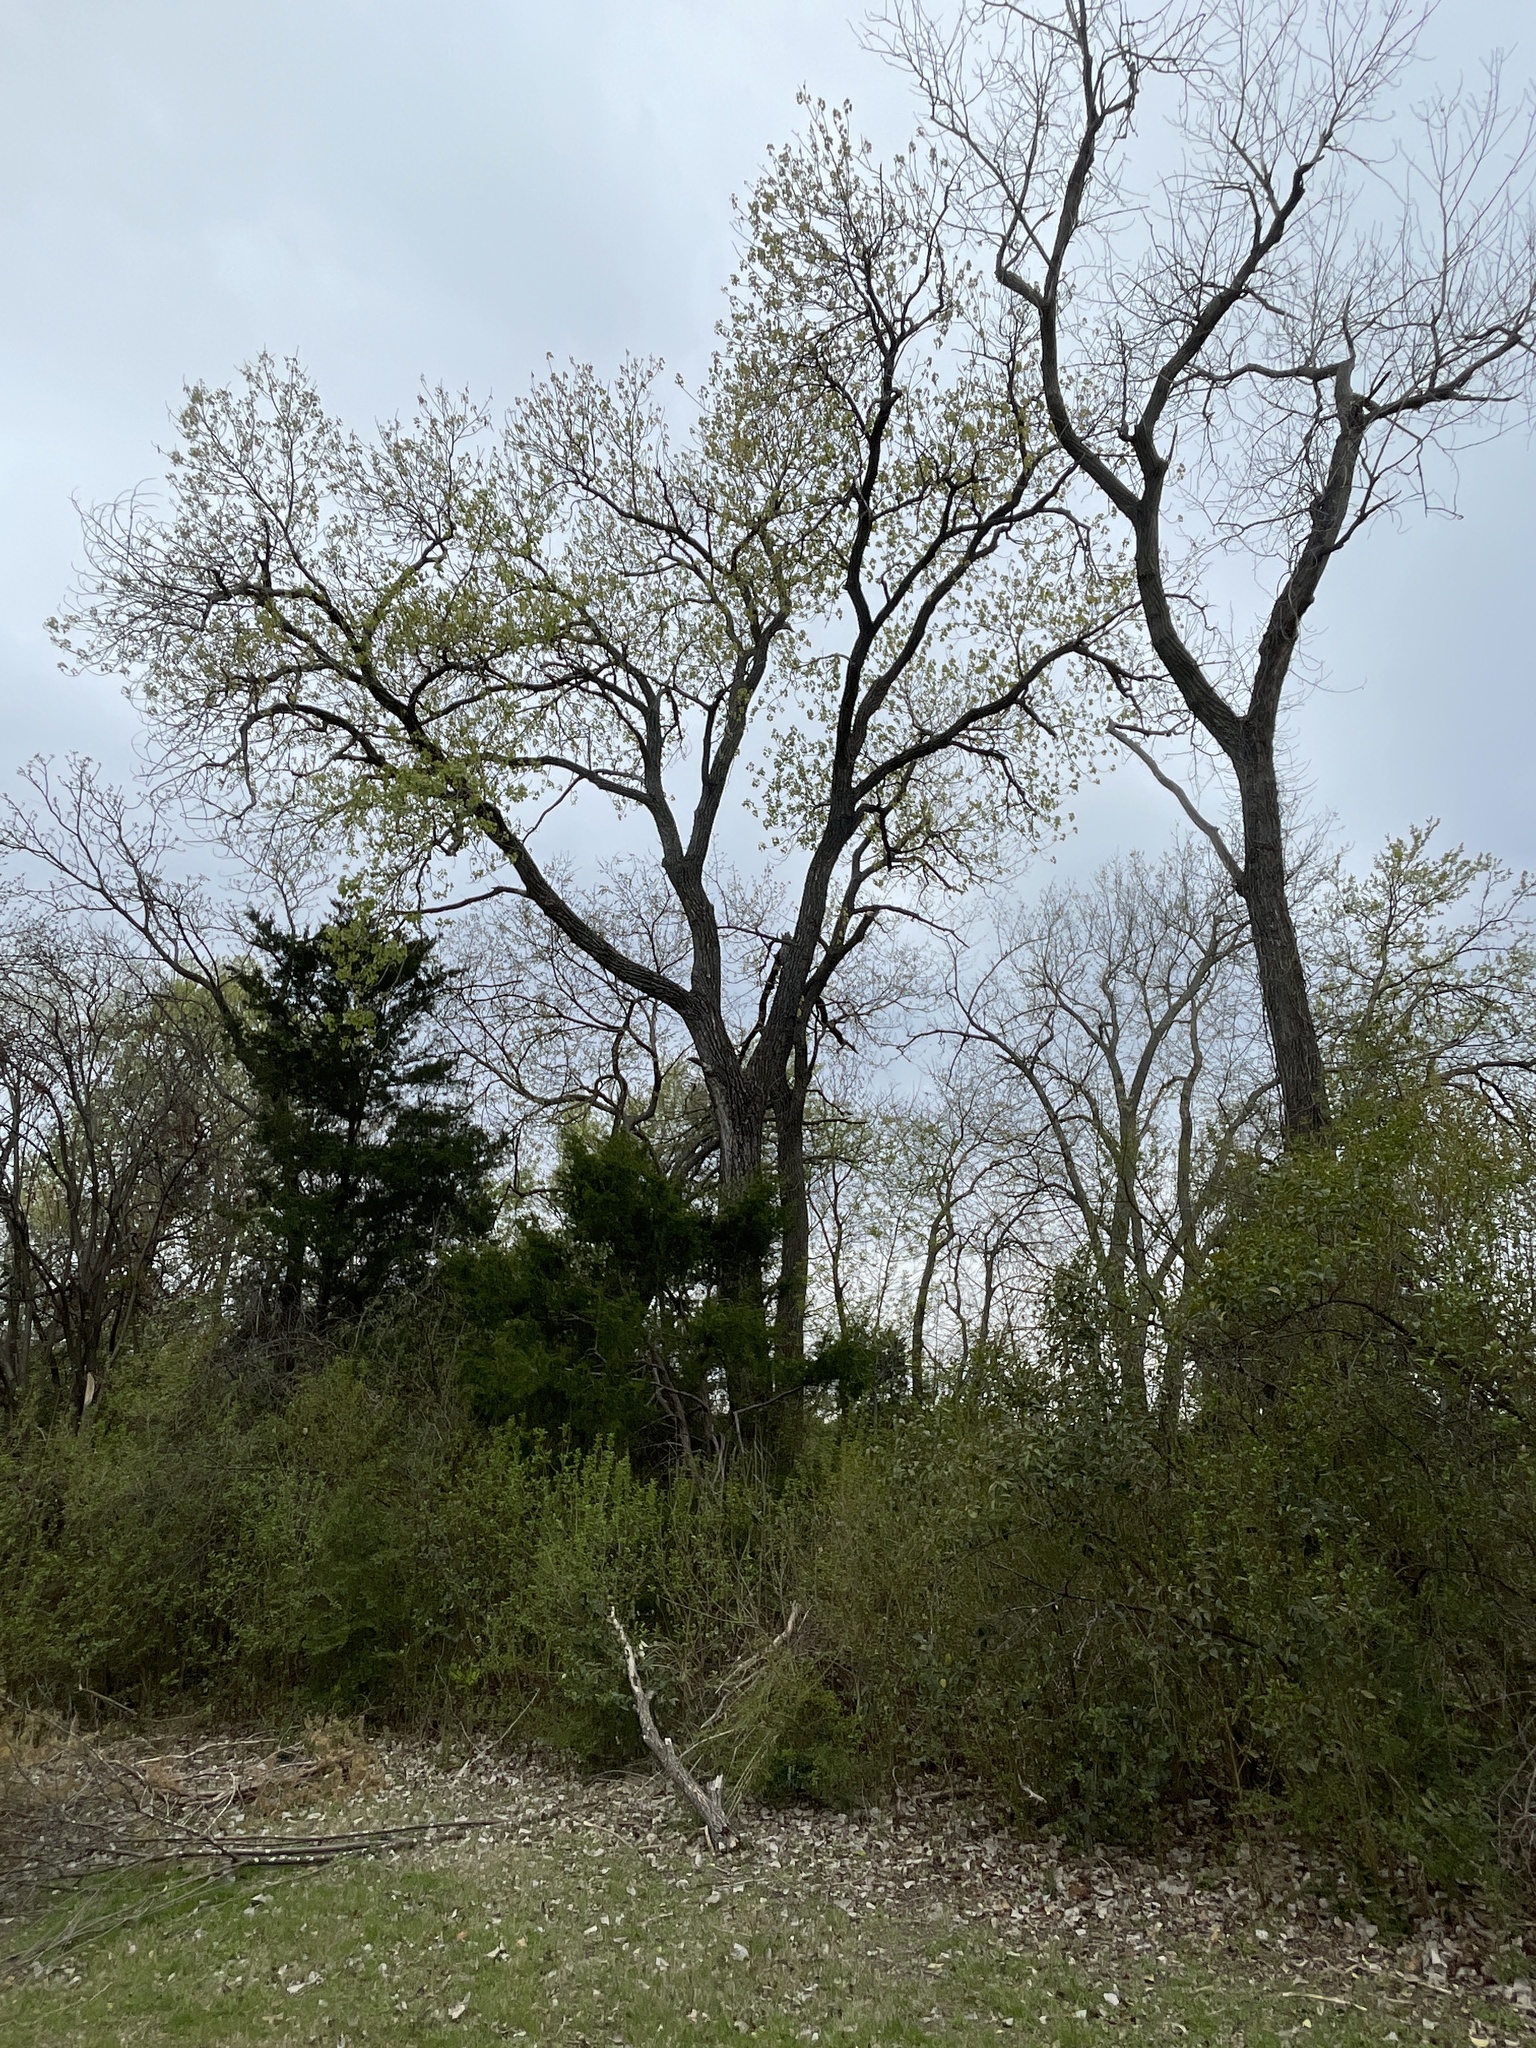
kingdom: Plantae
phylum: Tracheophyta
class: Magnoliopsida
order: Malpighiales
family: Salicaceae
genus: Populus
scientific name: Populus deltoides
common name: Eastern cottonwood
